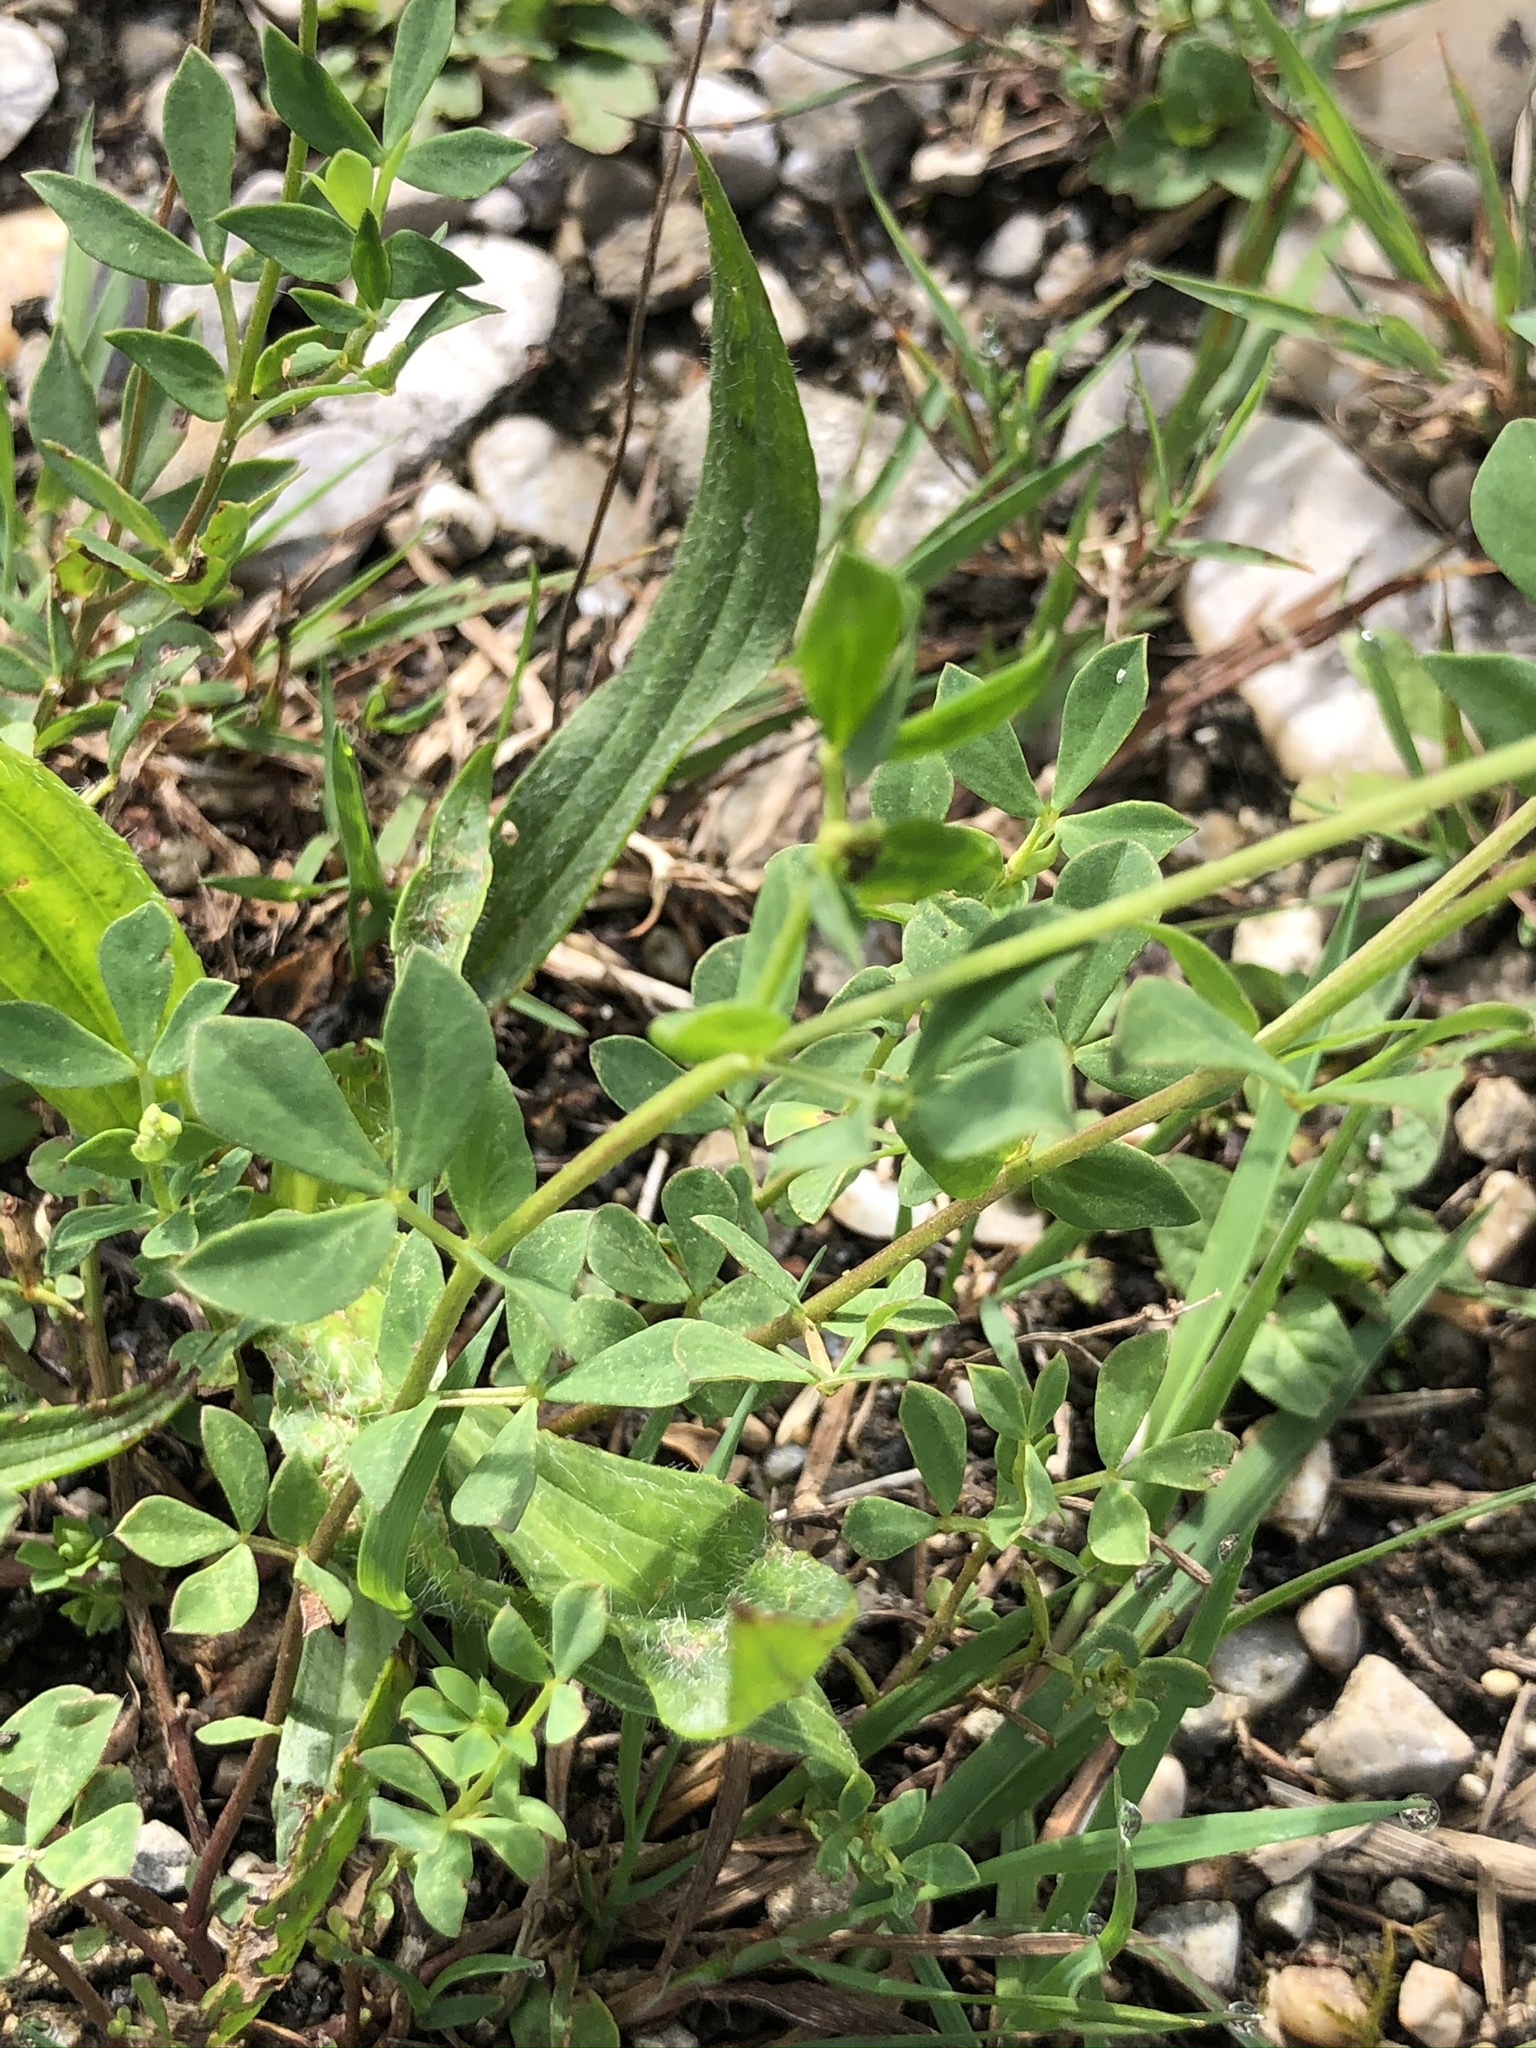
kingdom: Plantae
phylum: Tracheophyta
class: Magnoliopsida
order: Fabales
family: Fabaceae
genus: Lotus
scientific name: Lotus corniculatus
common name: Common bird's-foot-trefoil
